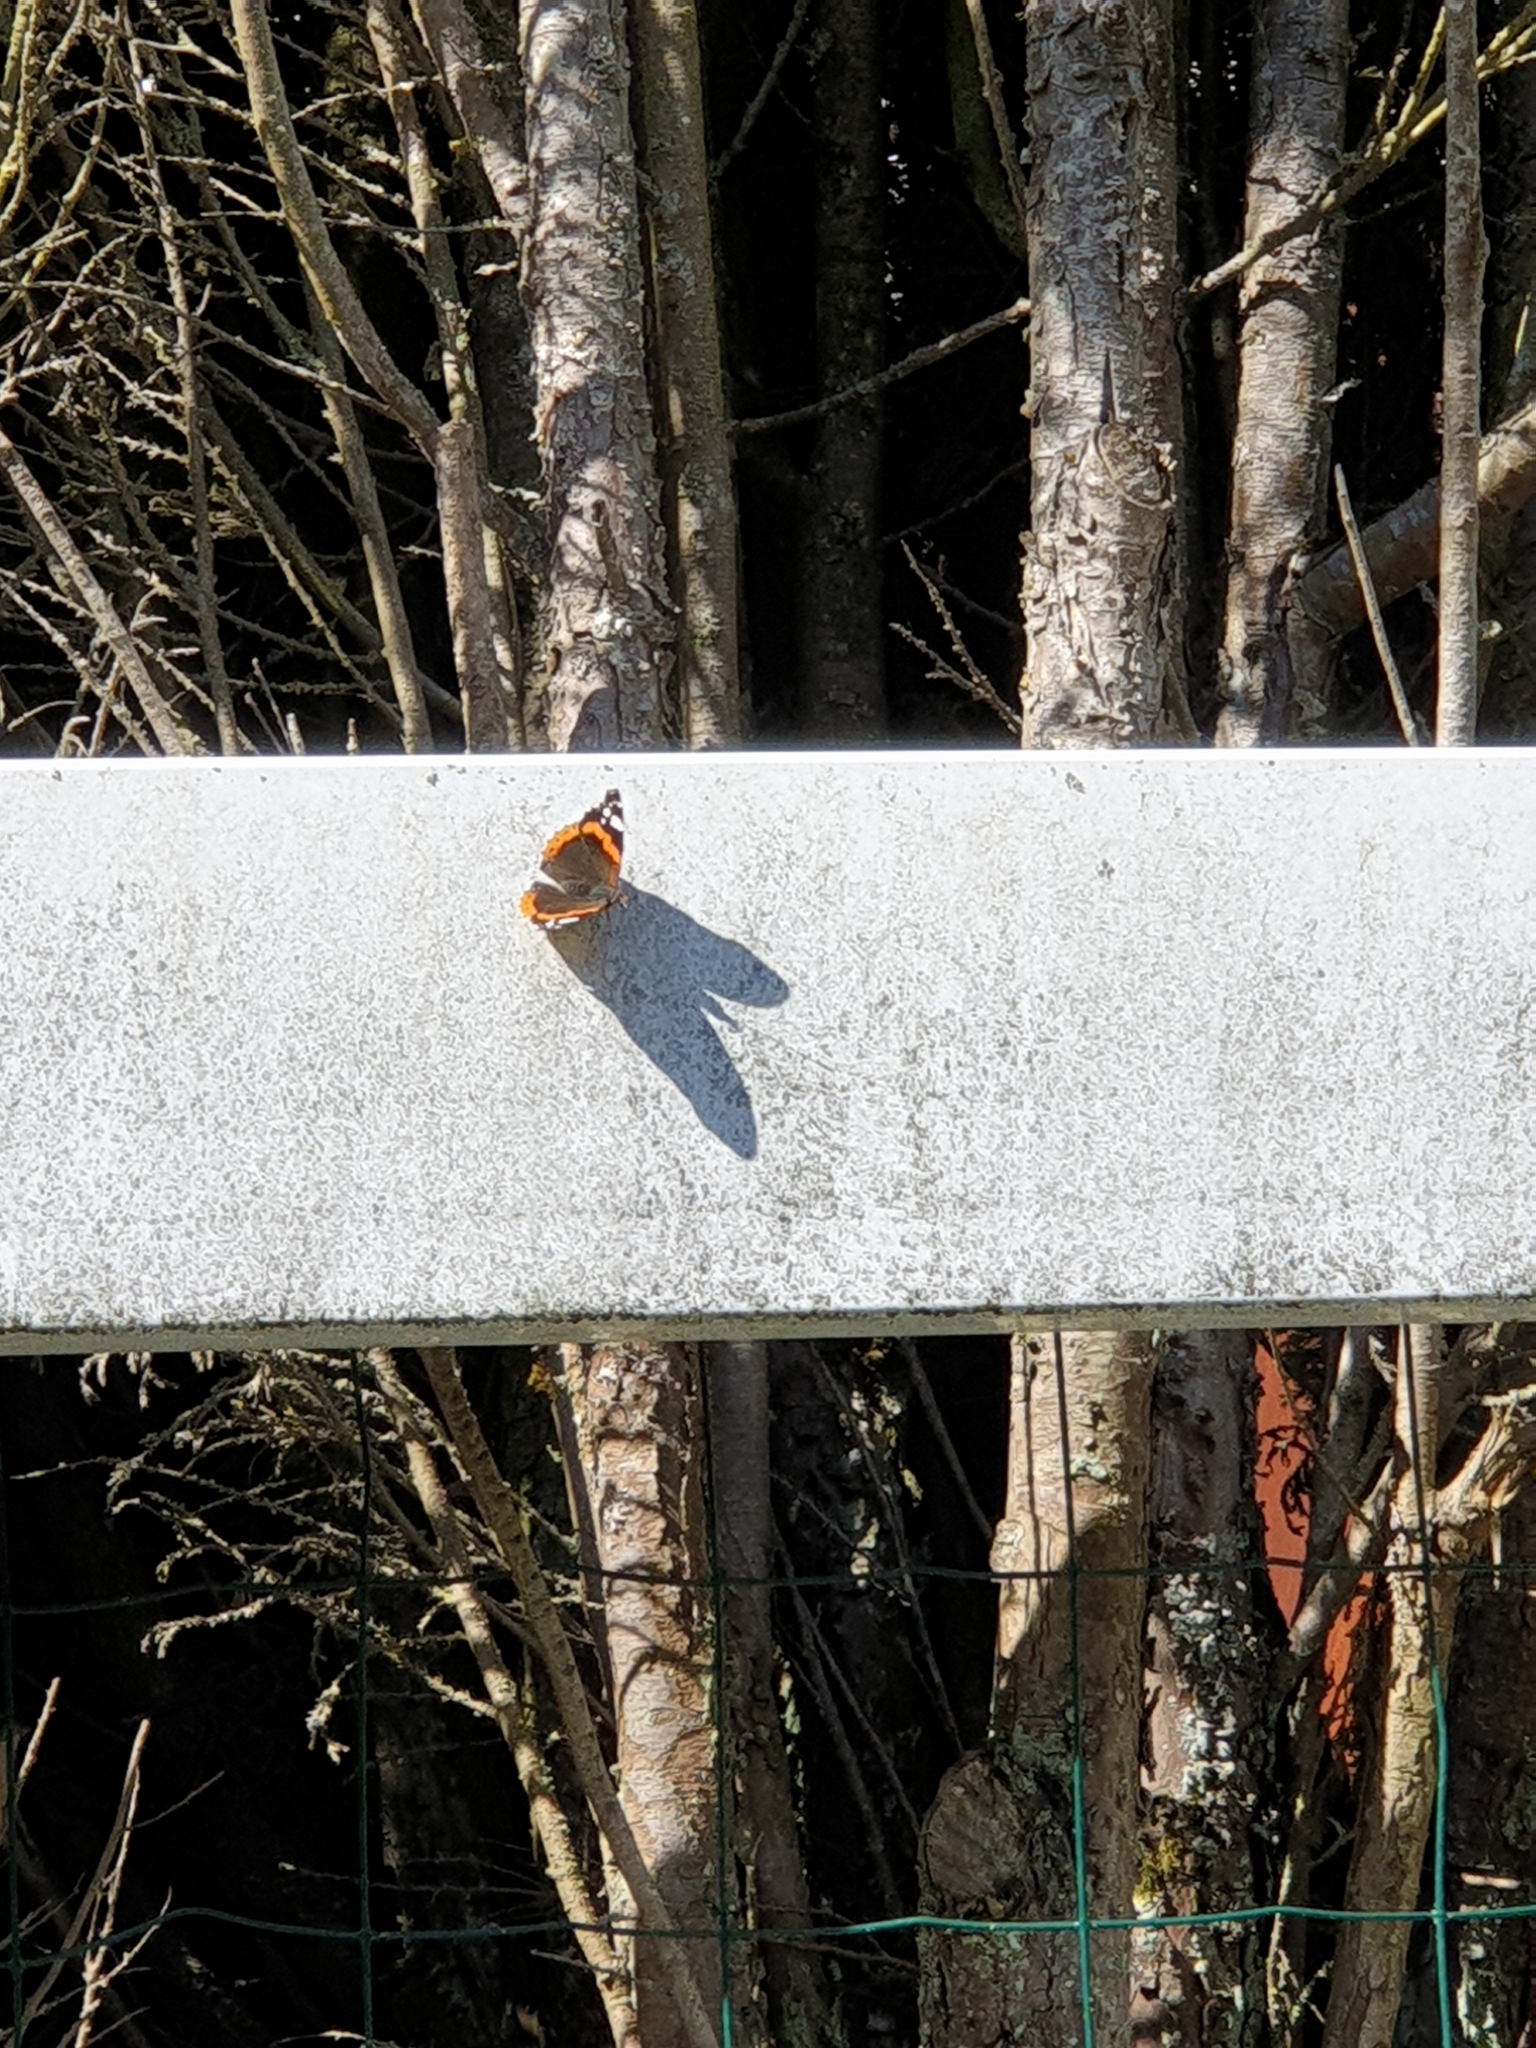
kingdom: Animalia
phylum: Arthropoda
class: Insecta
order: Lepidoptera
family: Nymphalidae
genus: Vanessa
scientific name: Vanessa atalanta
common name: Red admiral
